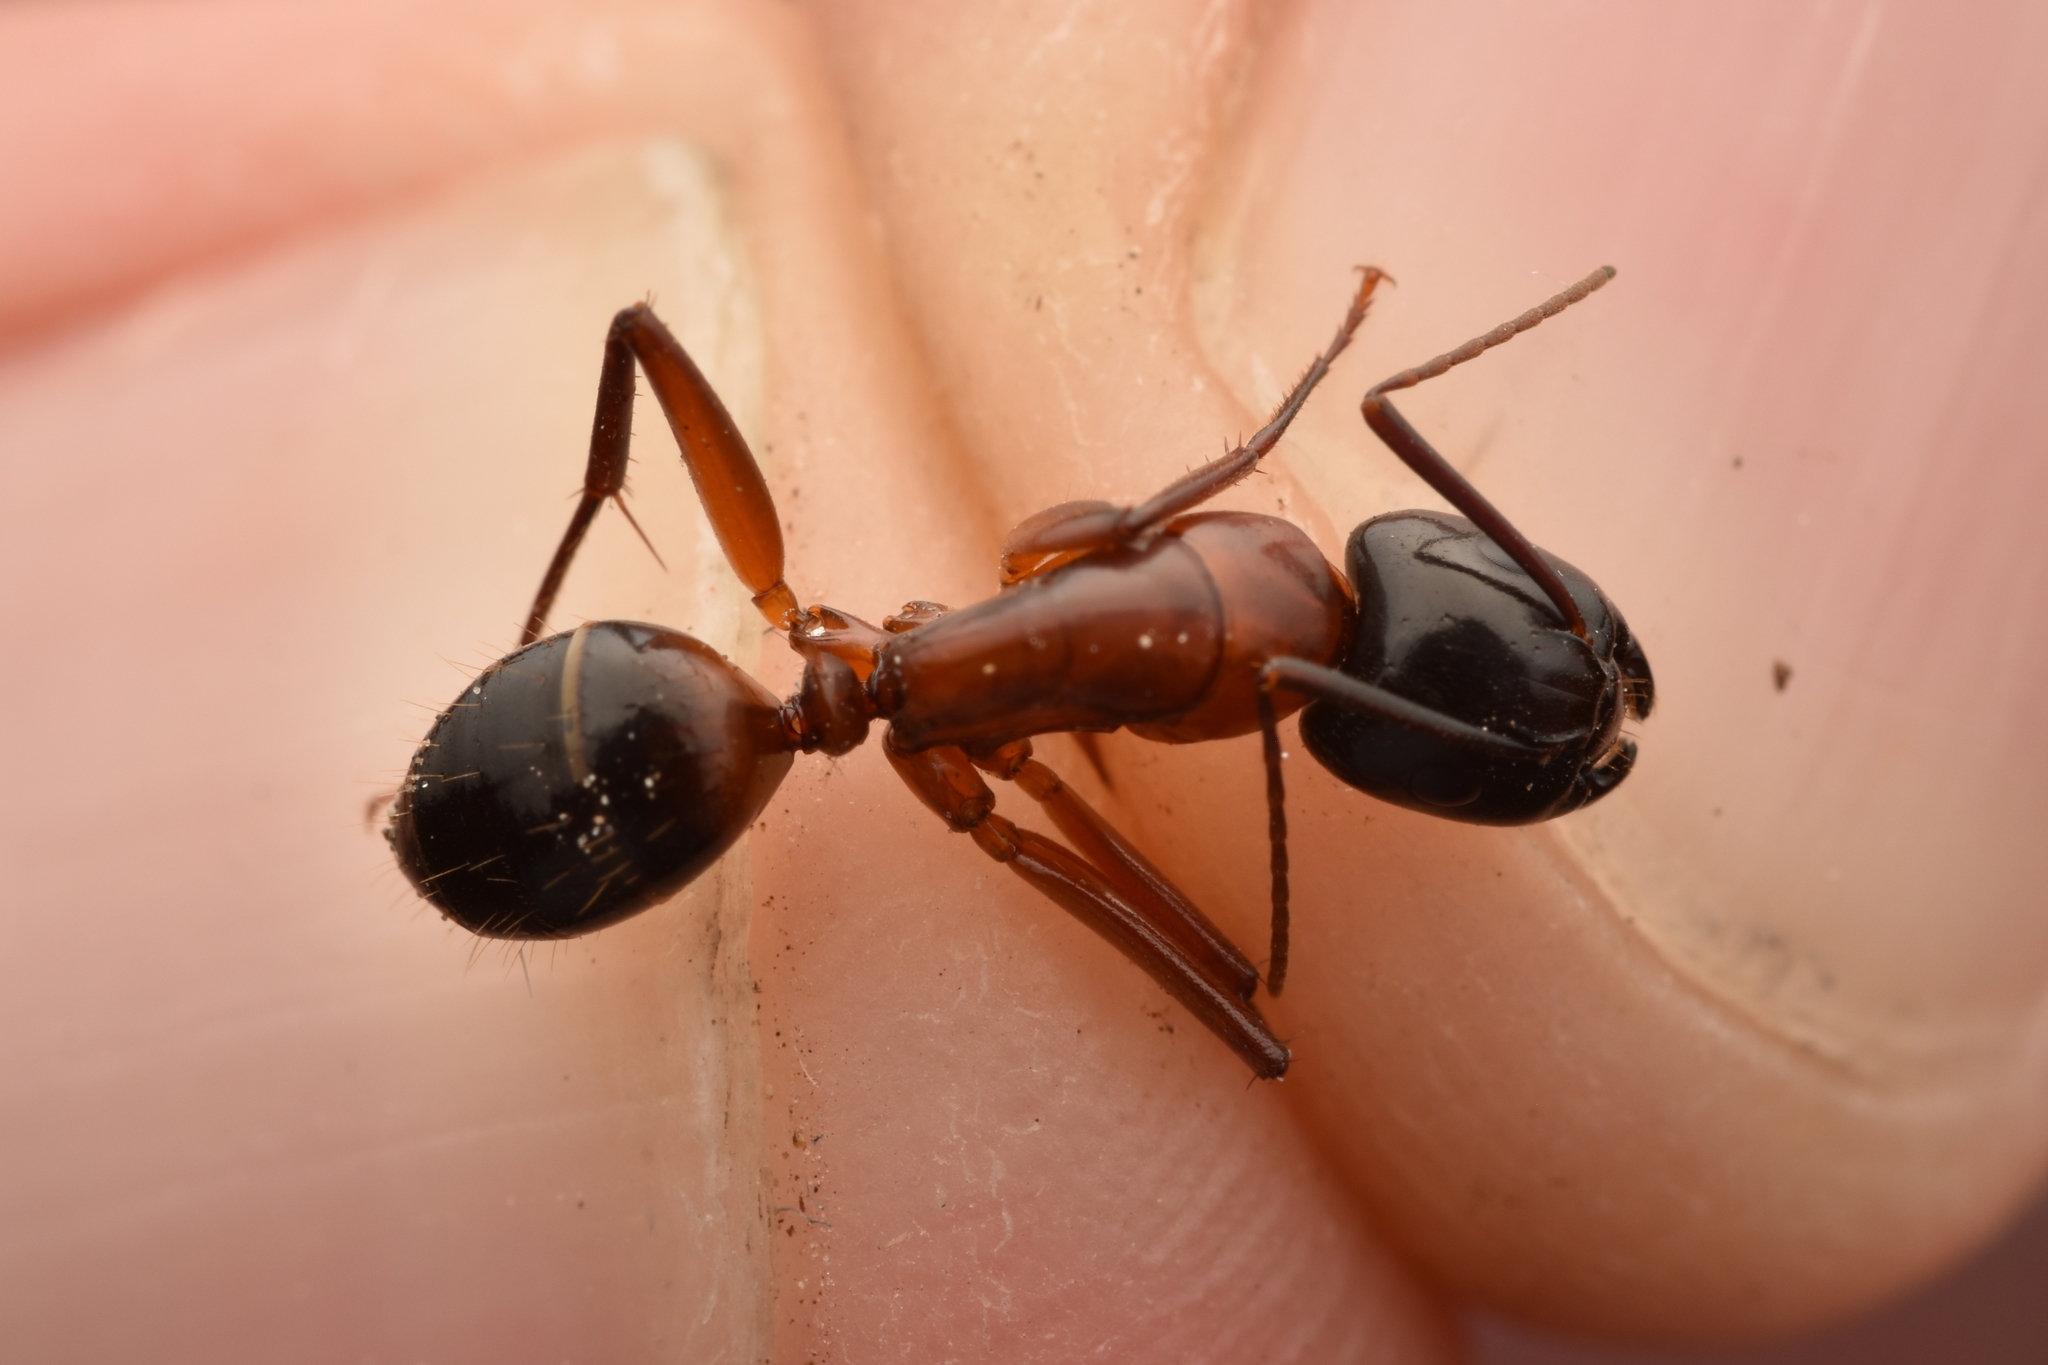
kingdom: Animalia
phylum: Arthropoda
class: Insecta
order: Hymenoptera
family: Formicidae
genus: Camponotus
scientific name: Camponotus texanus
